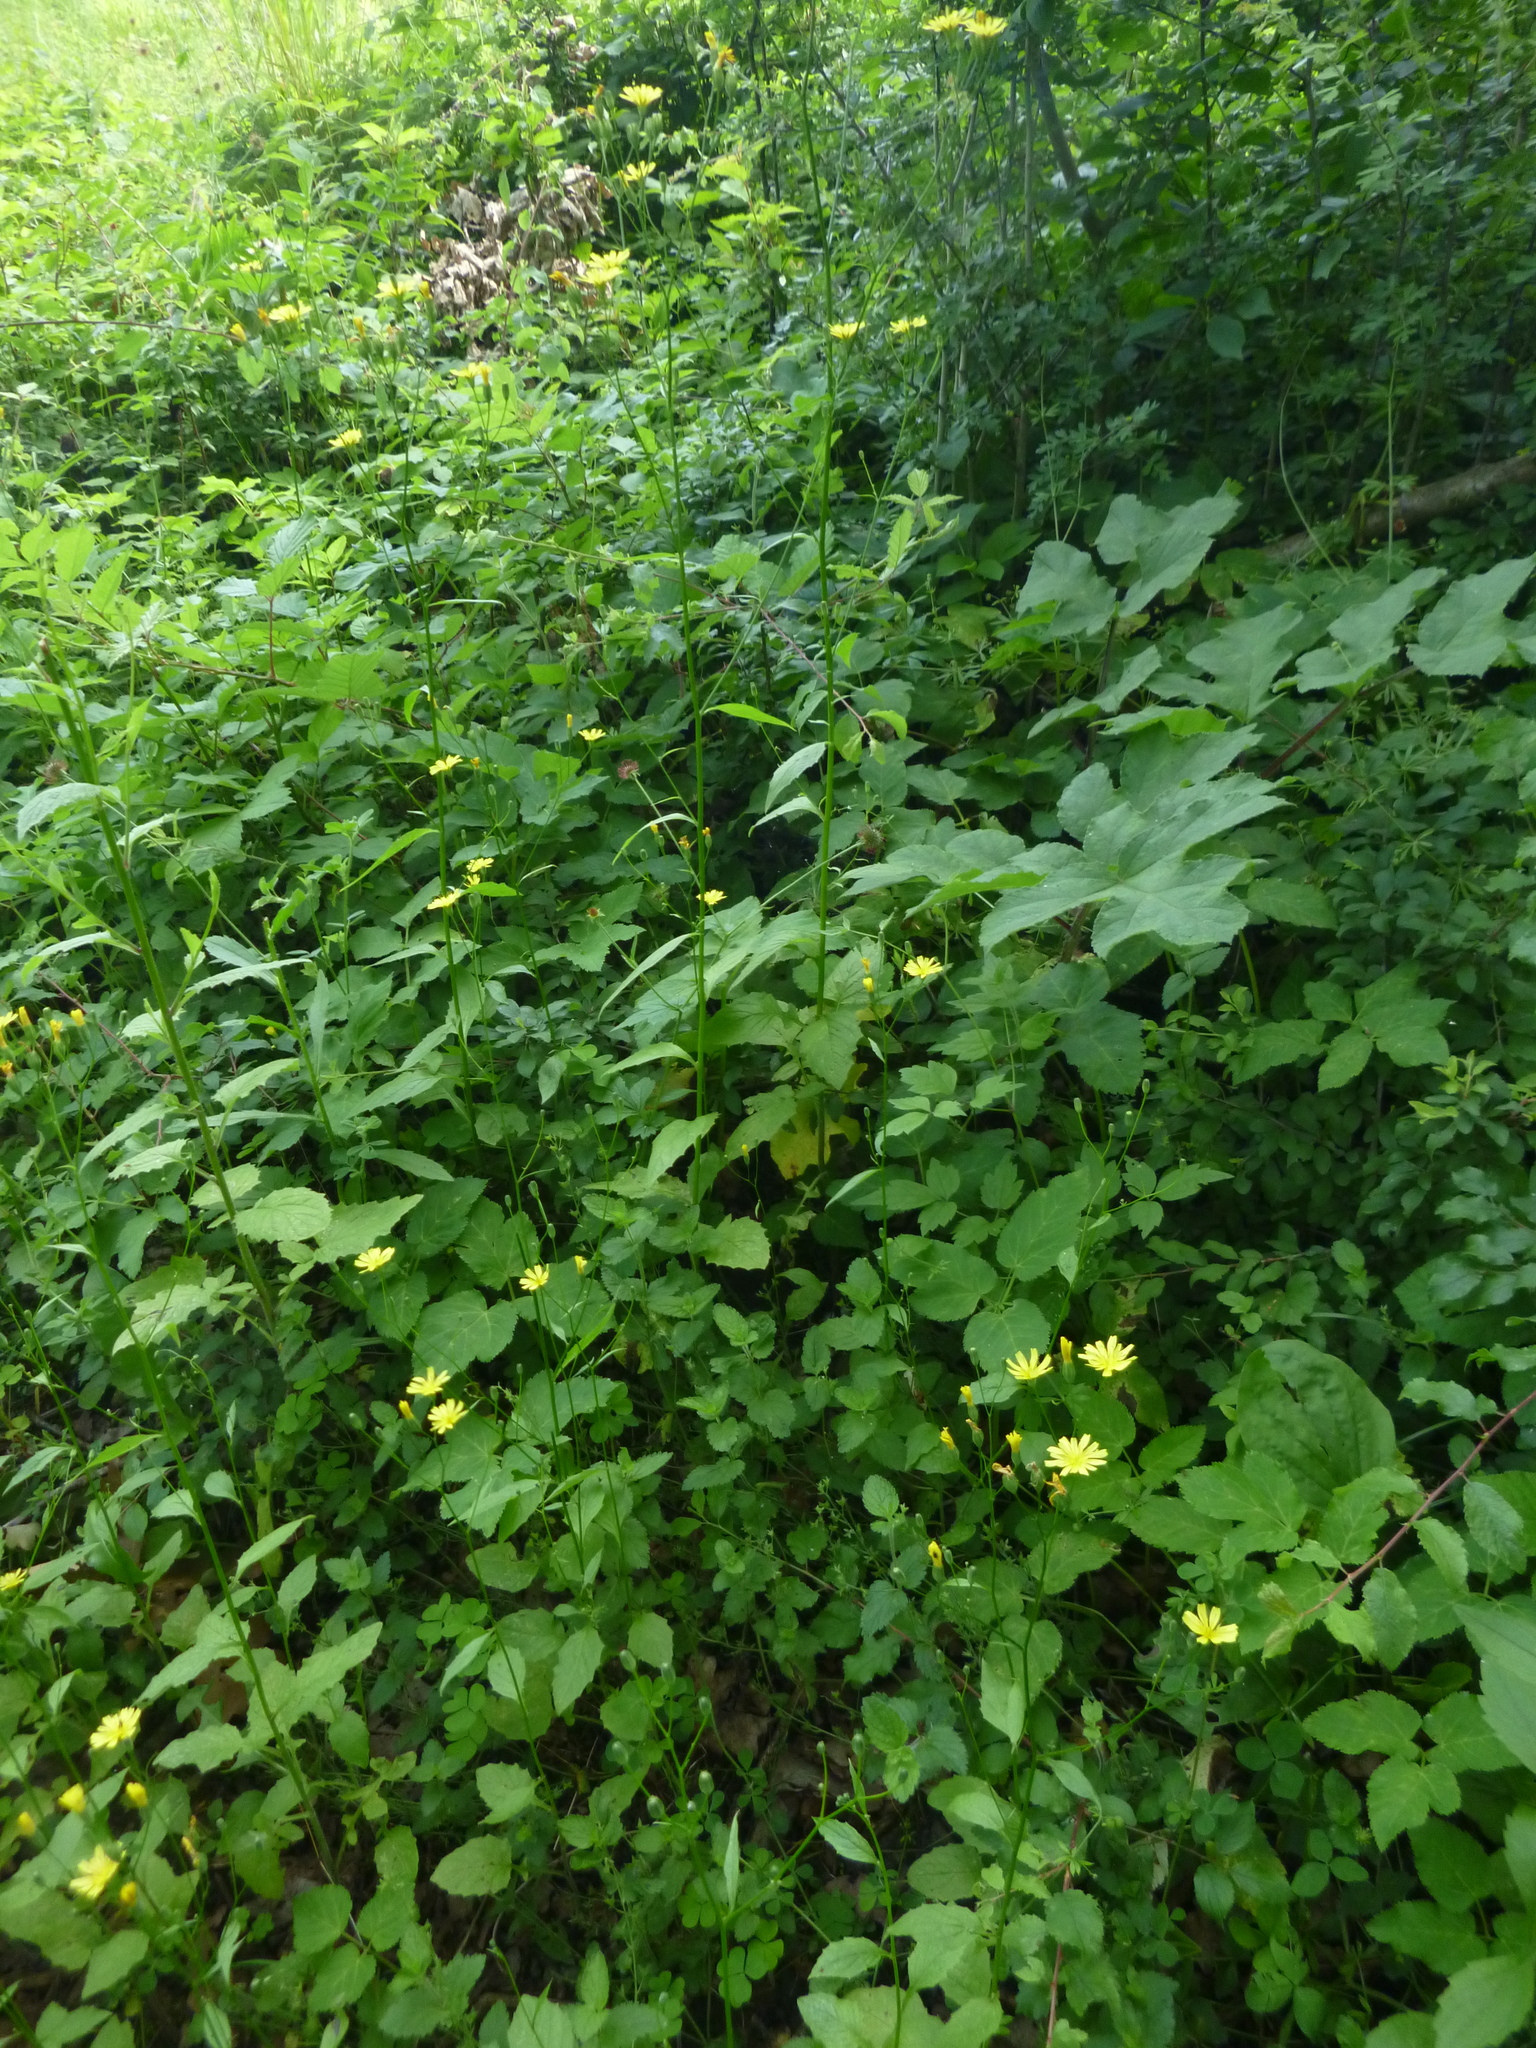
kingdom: Plantae
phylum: Tracheophyta
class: Magnoliopsida
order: Asterales
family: Asteraceae
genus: Lapsana
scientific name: Lapsana communis
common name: Nipplewort
